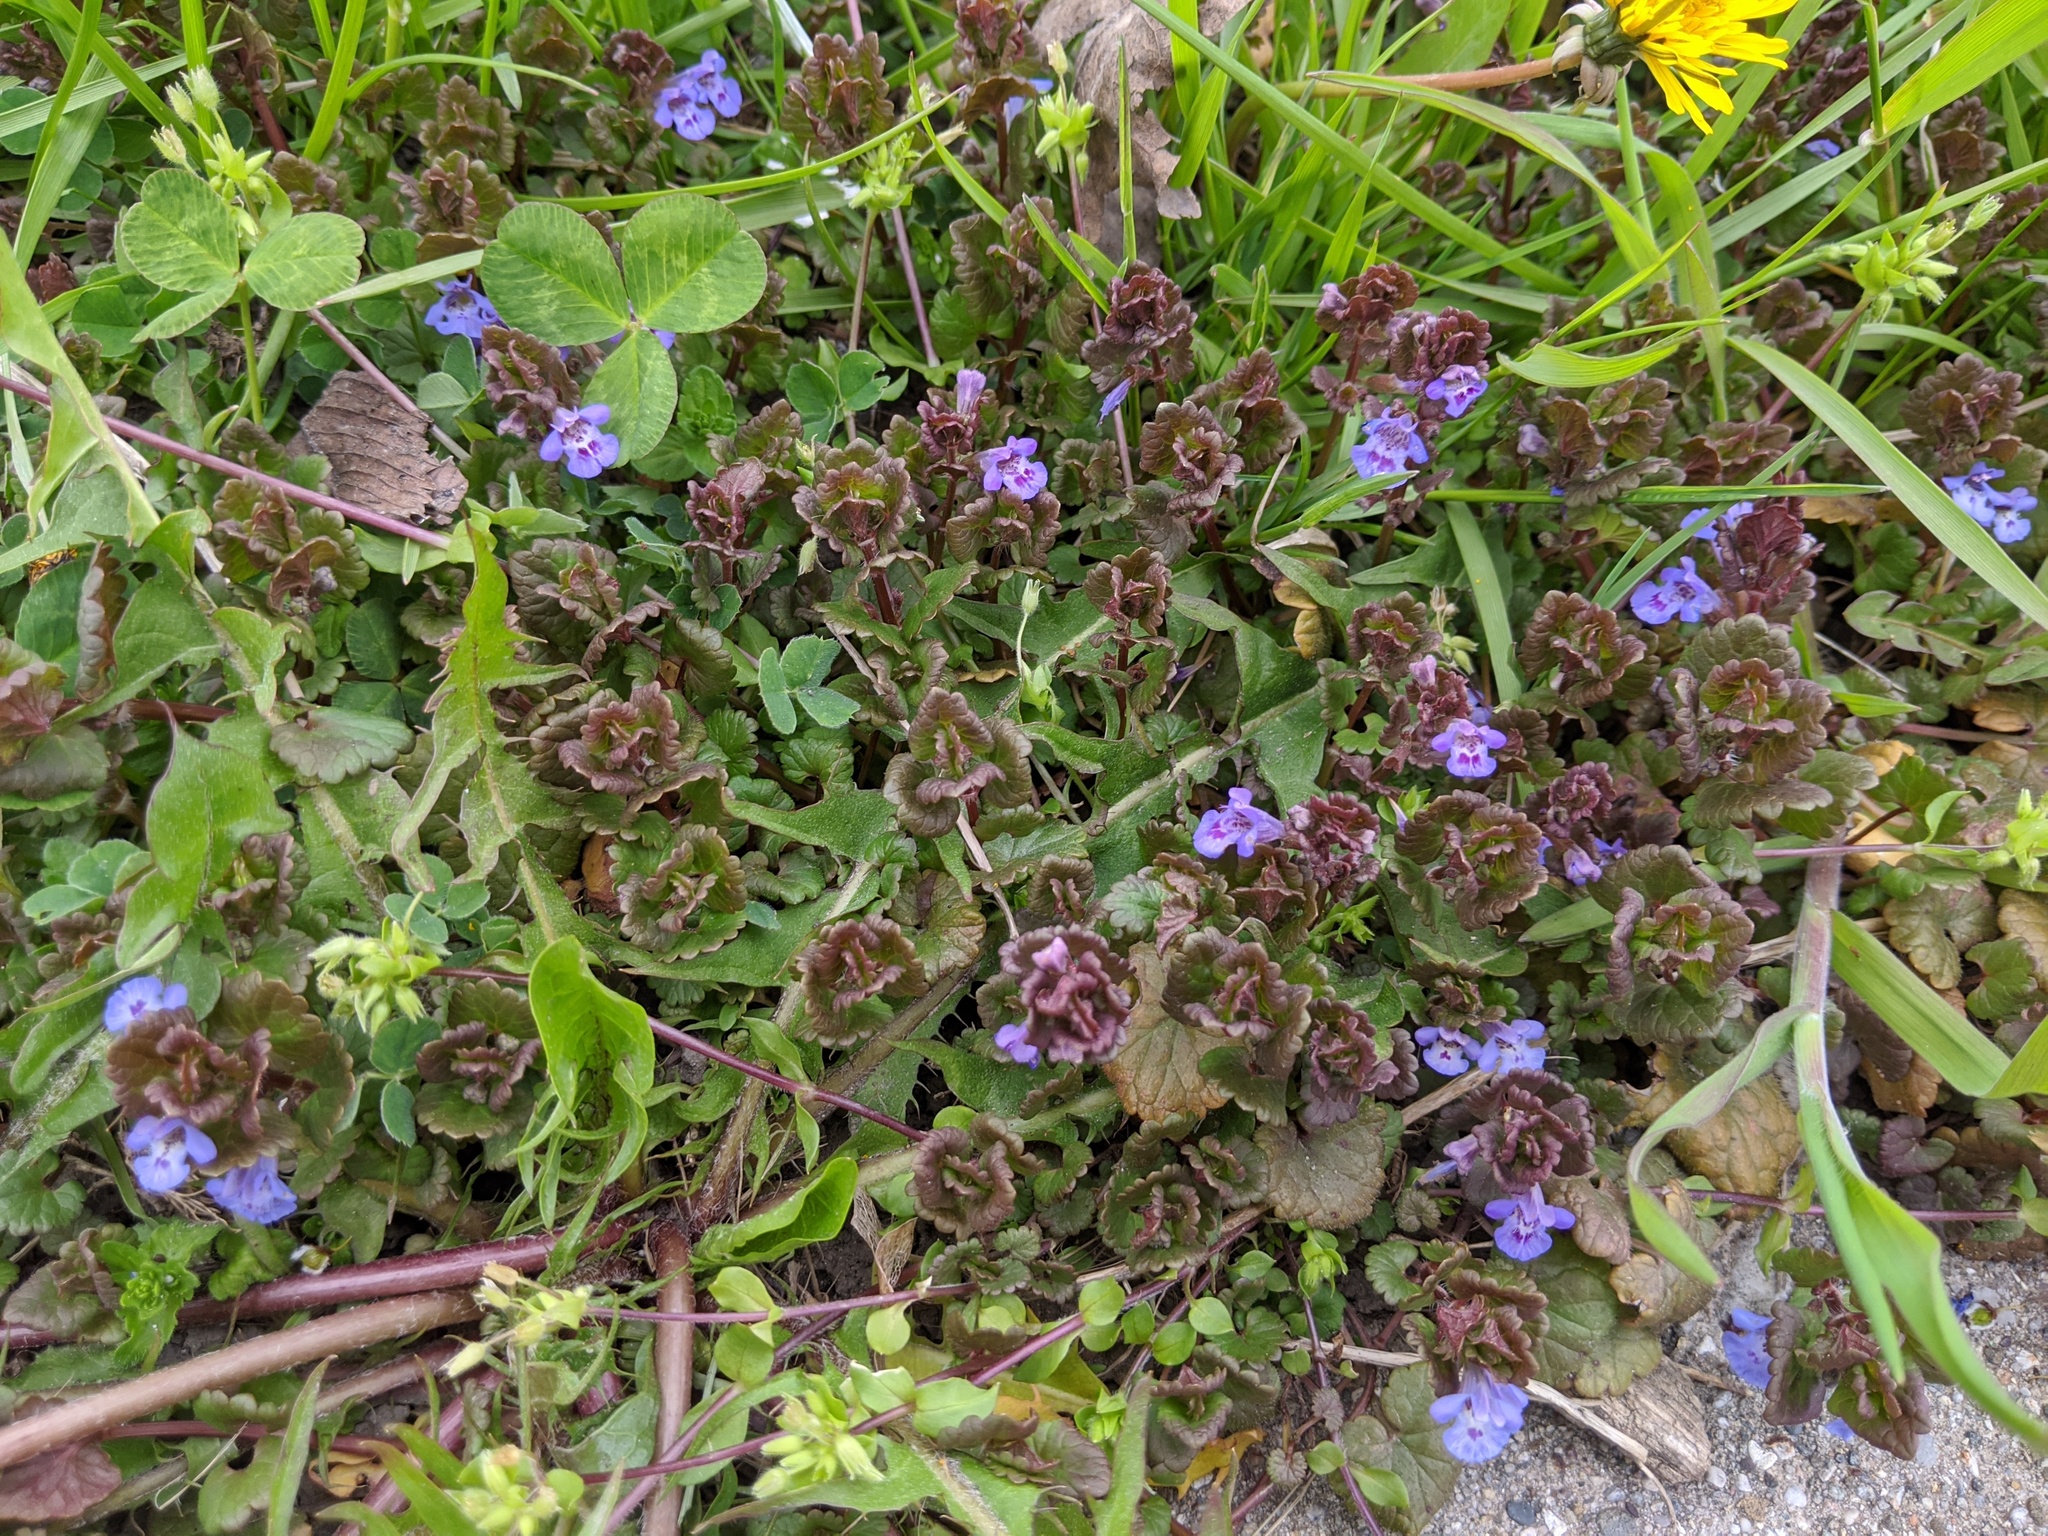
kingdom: Plantae
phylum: Tracheophyta
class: Magnoliopsida
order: Lamiales
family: Lamiaceae
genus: Glechoma
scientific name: Glechoma hederacea
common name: Ground ivy
